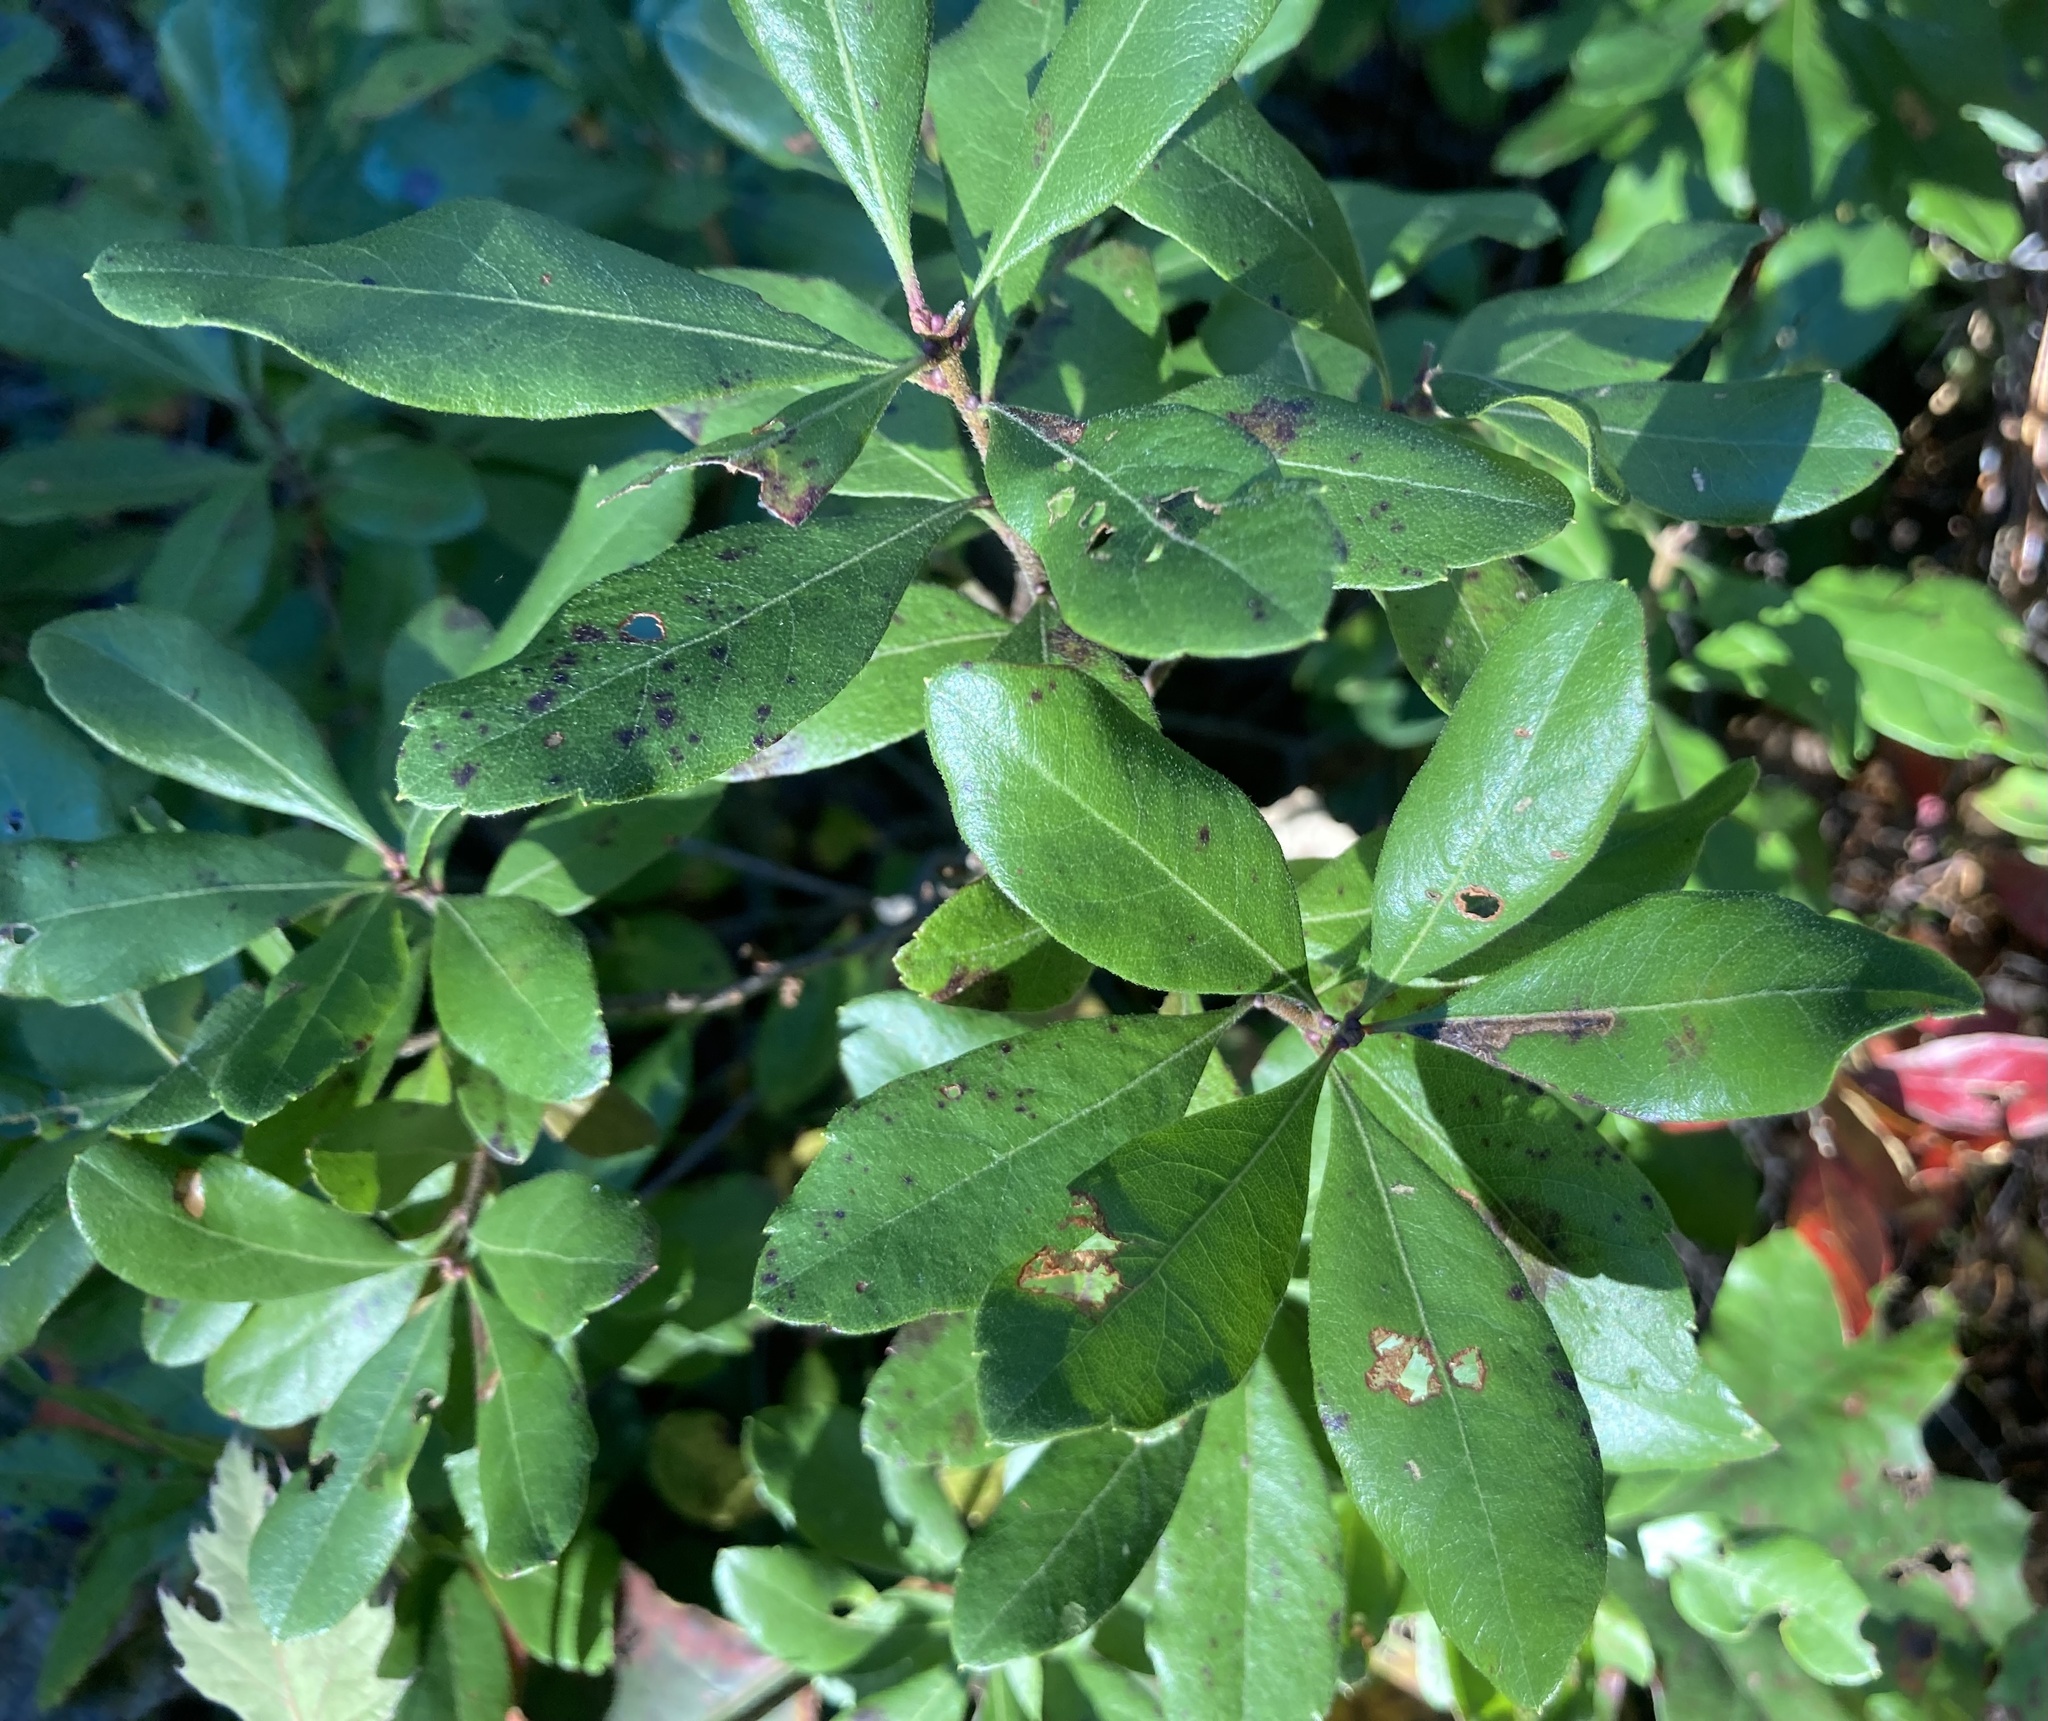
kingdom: Plantae
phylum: Tracheophyta
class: Magnoliopsida
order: Fagales
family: Myricaceae
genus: Morella
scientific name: Morella pensylvanica
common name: Northern bayberry
